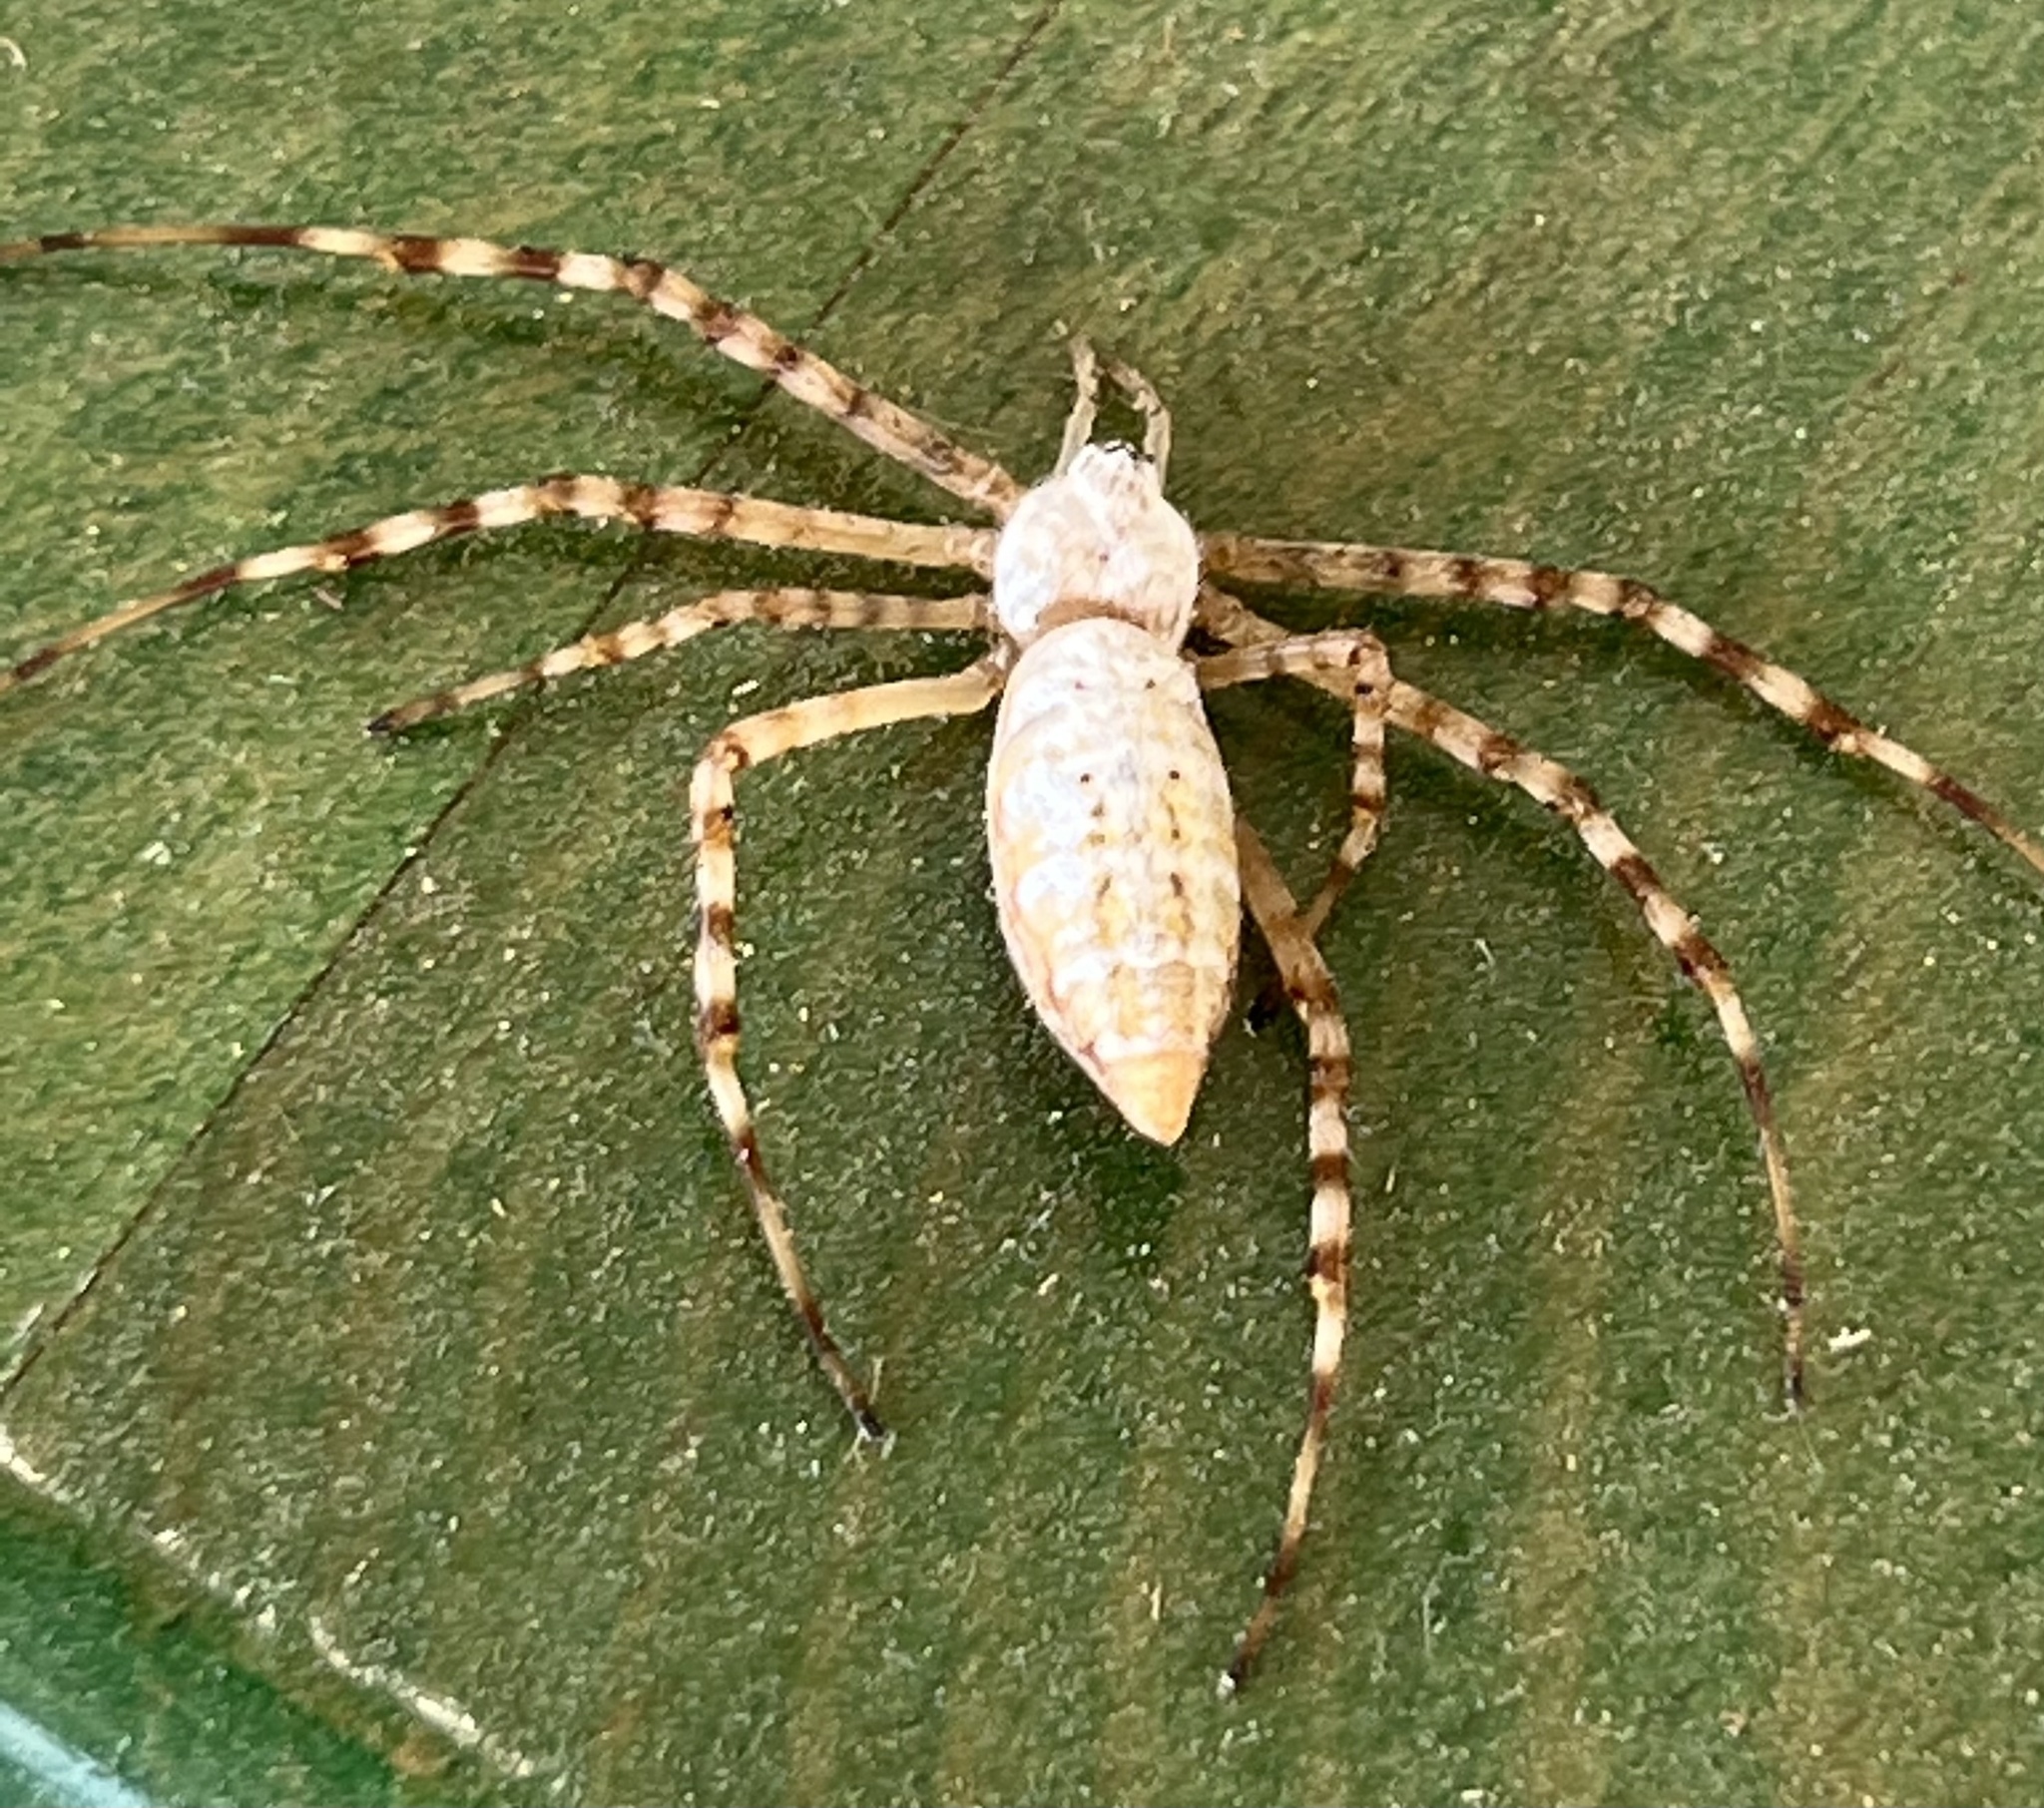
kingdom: Animalia
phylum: Arthropoda
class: Arachnida
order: Araneae
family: Araneidae
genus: Argiope
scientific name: Argiope trifasciata
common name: Banded garden spider
